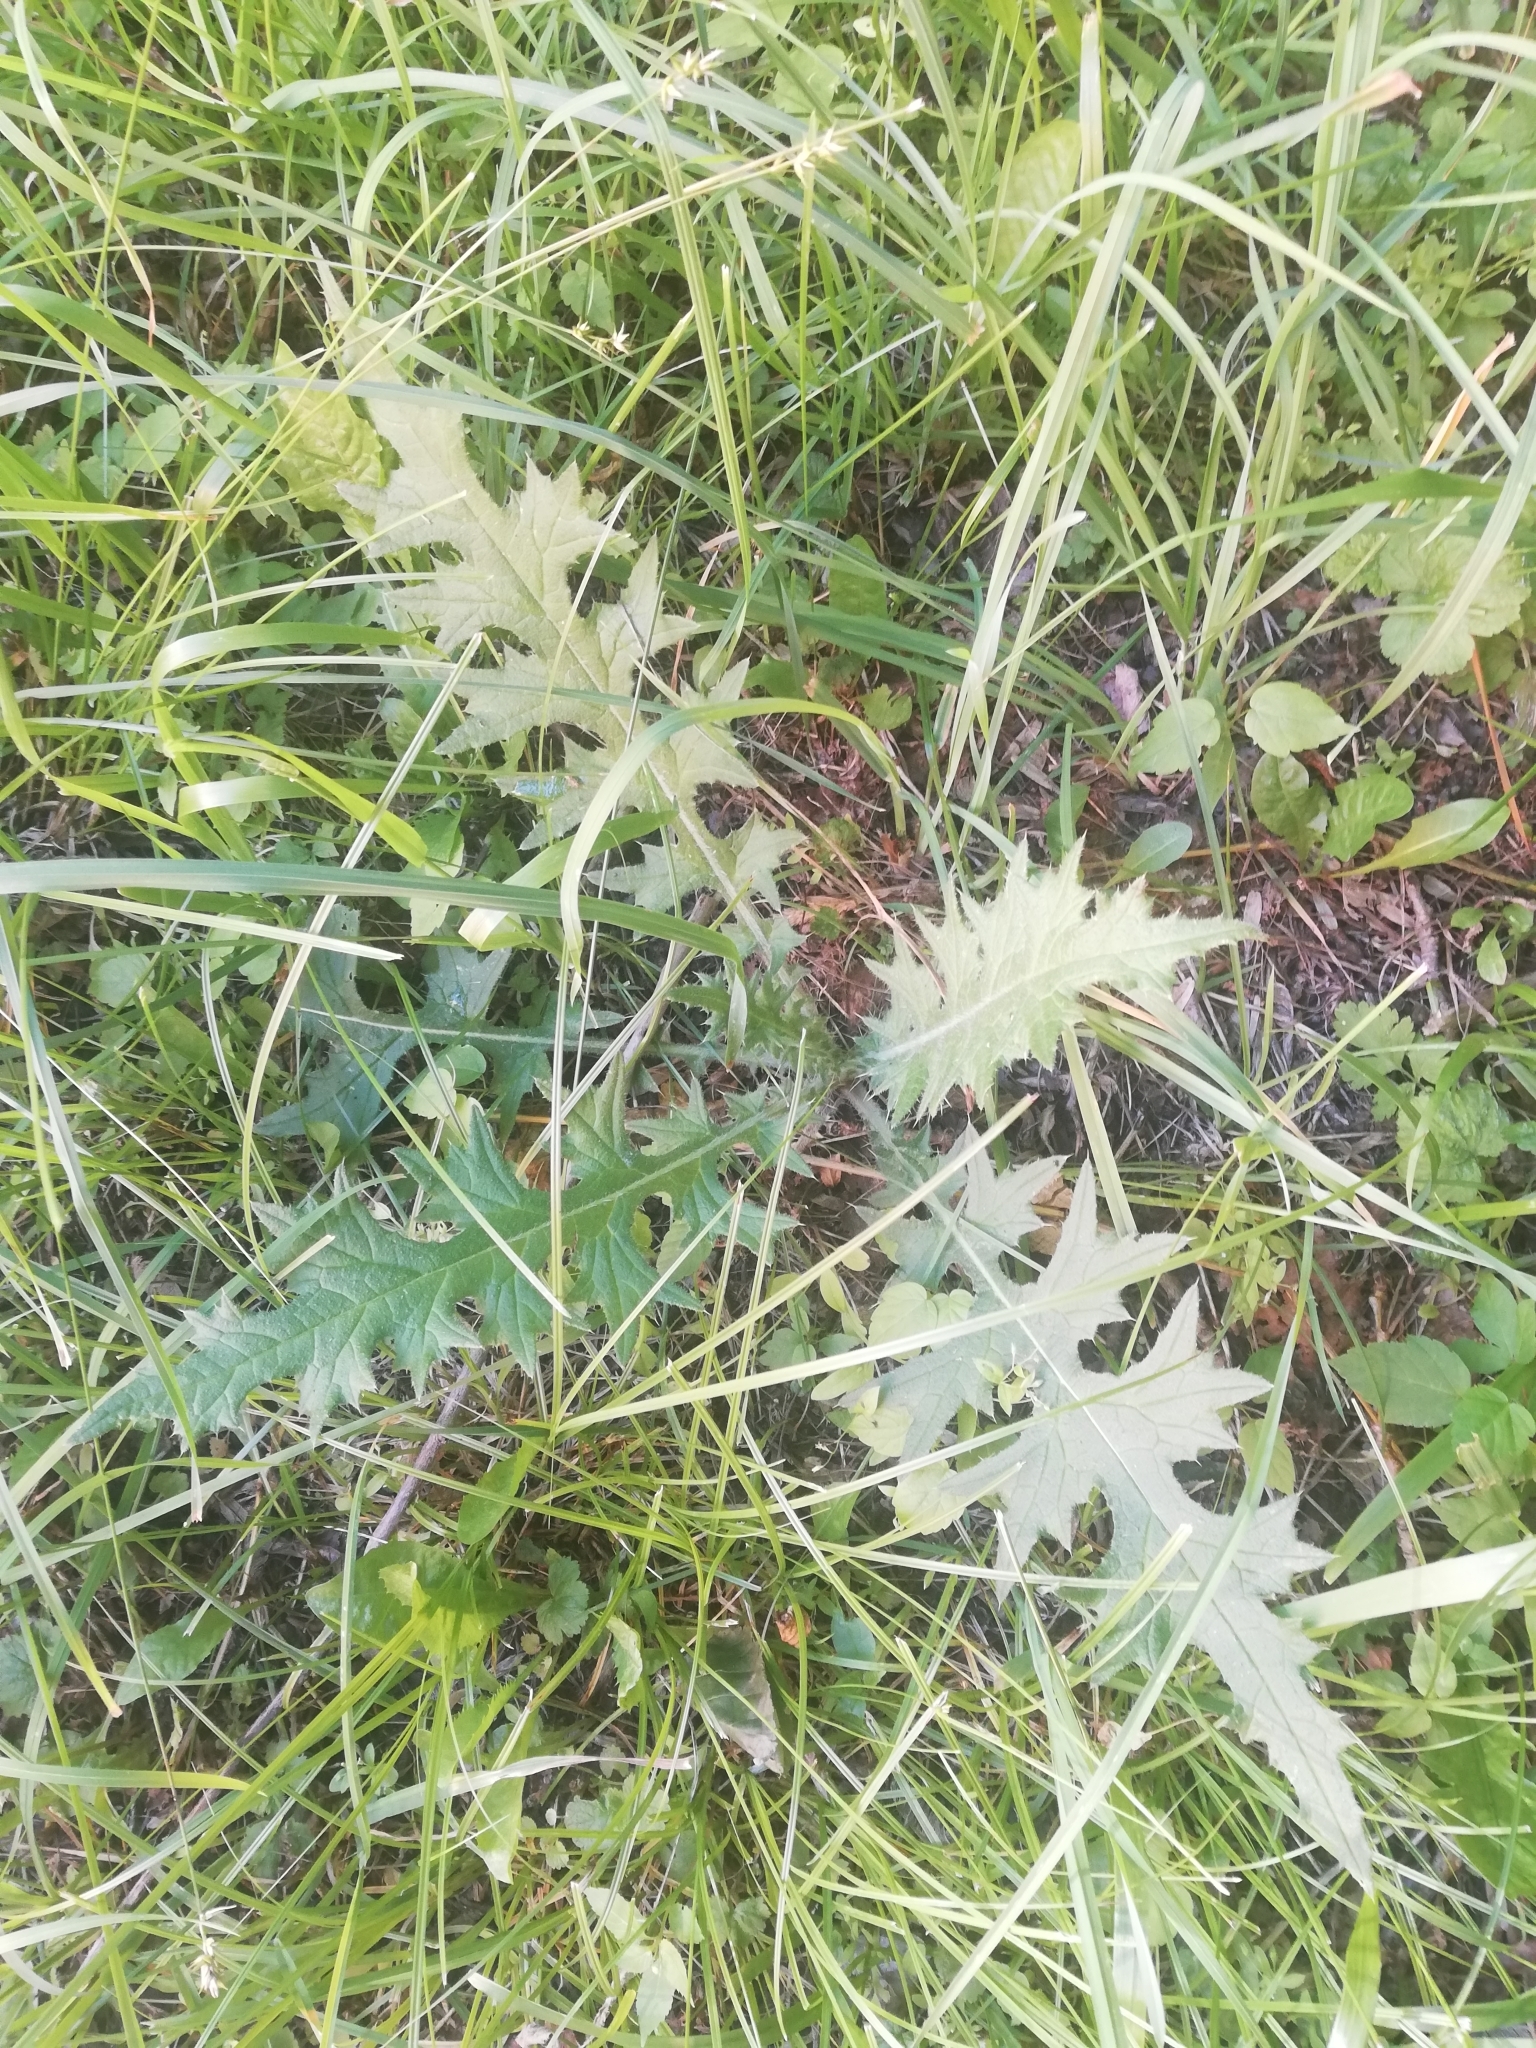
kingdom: Plantae
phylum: Tracheophyta
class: Magnoliopsida
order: Asterales
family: Asteraceae
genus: Cirsium
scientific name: Cirsium vulgare
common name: Bull thistle
